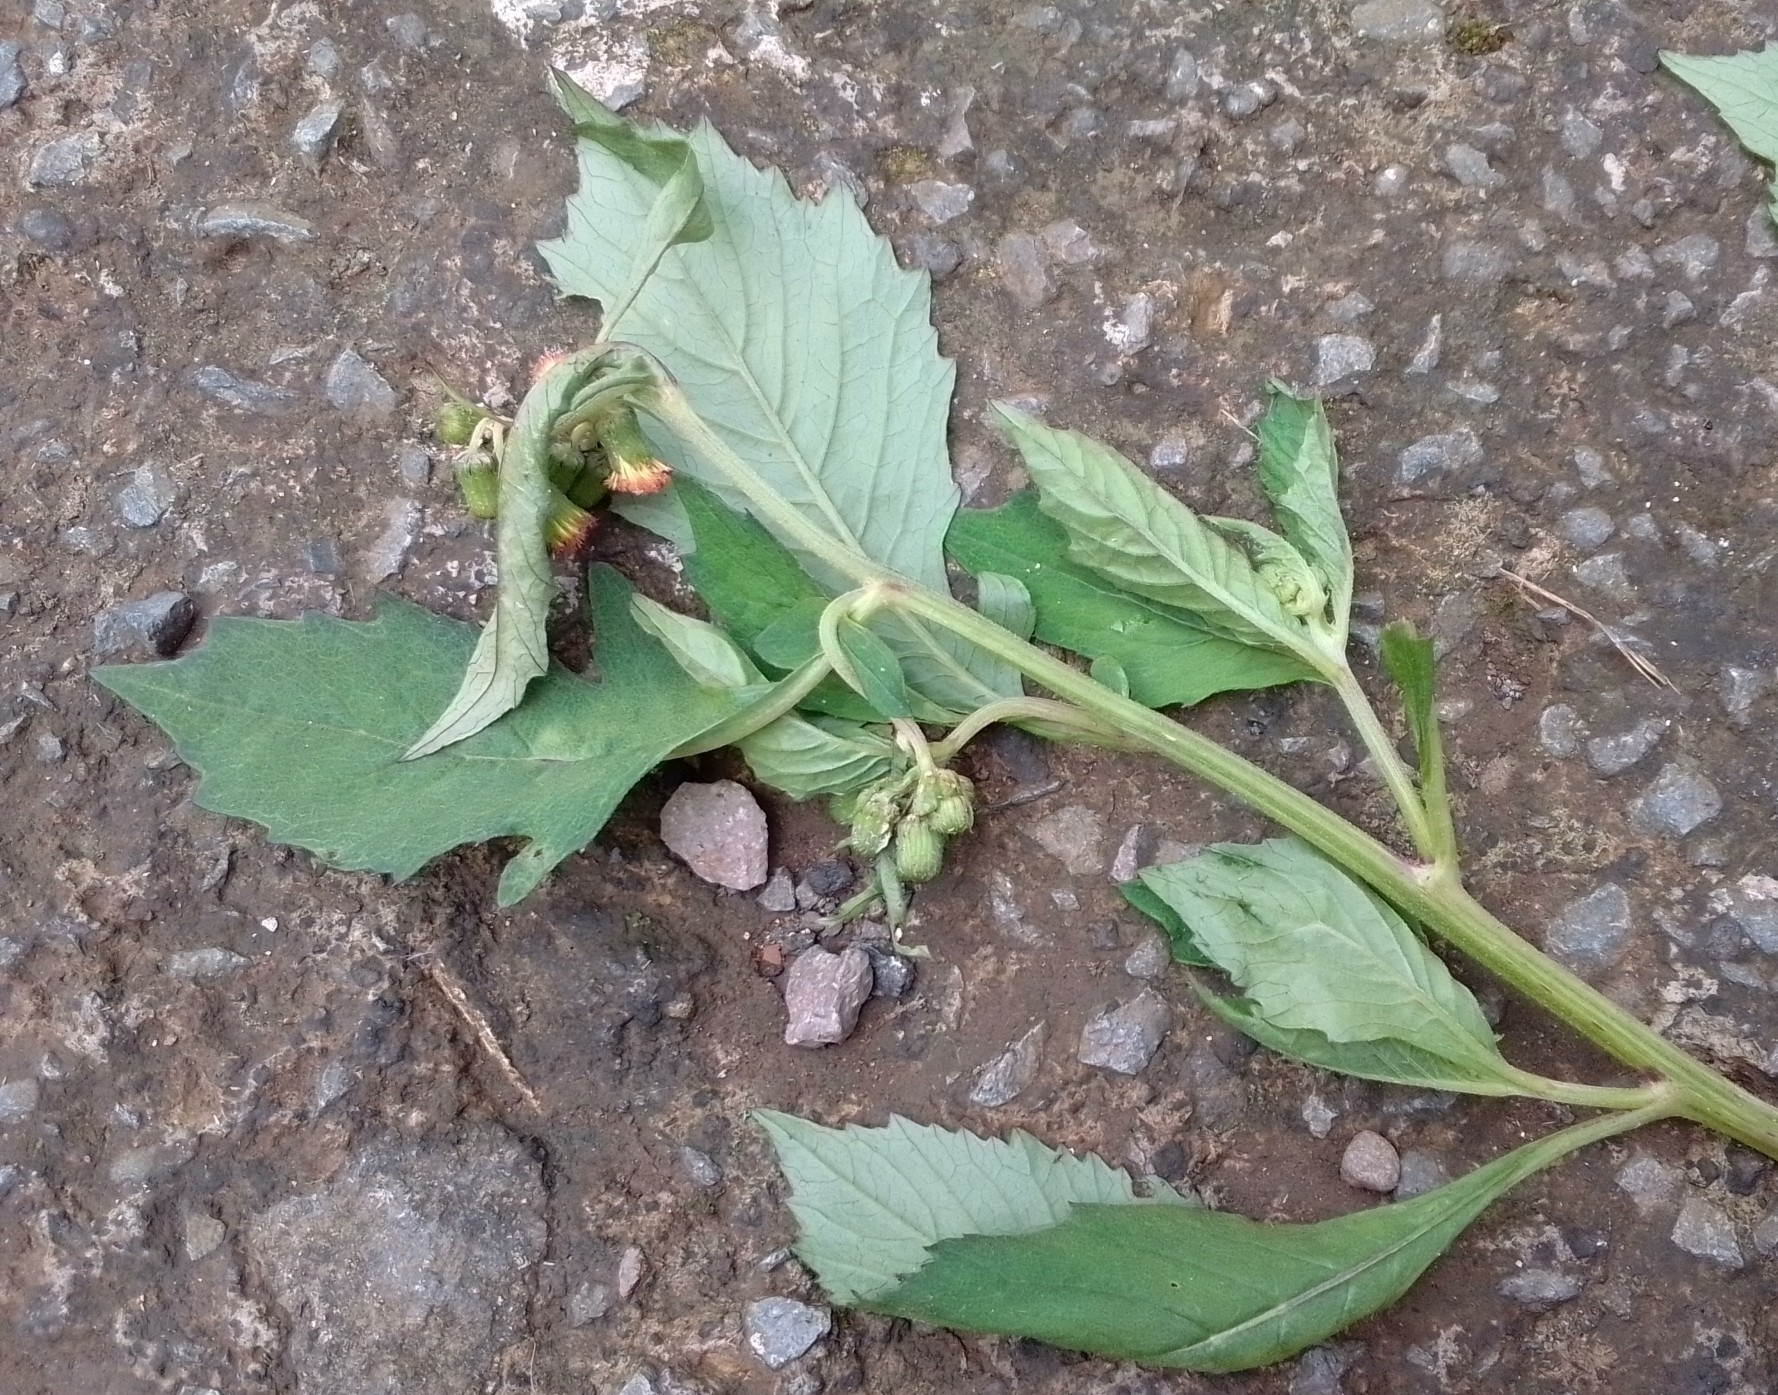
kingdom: Plantae
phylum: Tracheophyta
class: Magnoliopsida
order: Asterales
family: Asteraceae
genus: Crassocephalum
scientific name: Crassocephalum crepidioides
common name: Redflower ragleaf
